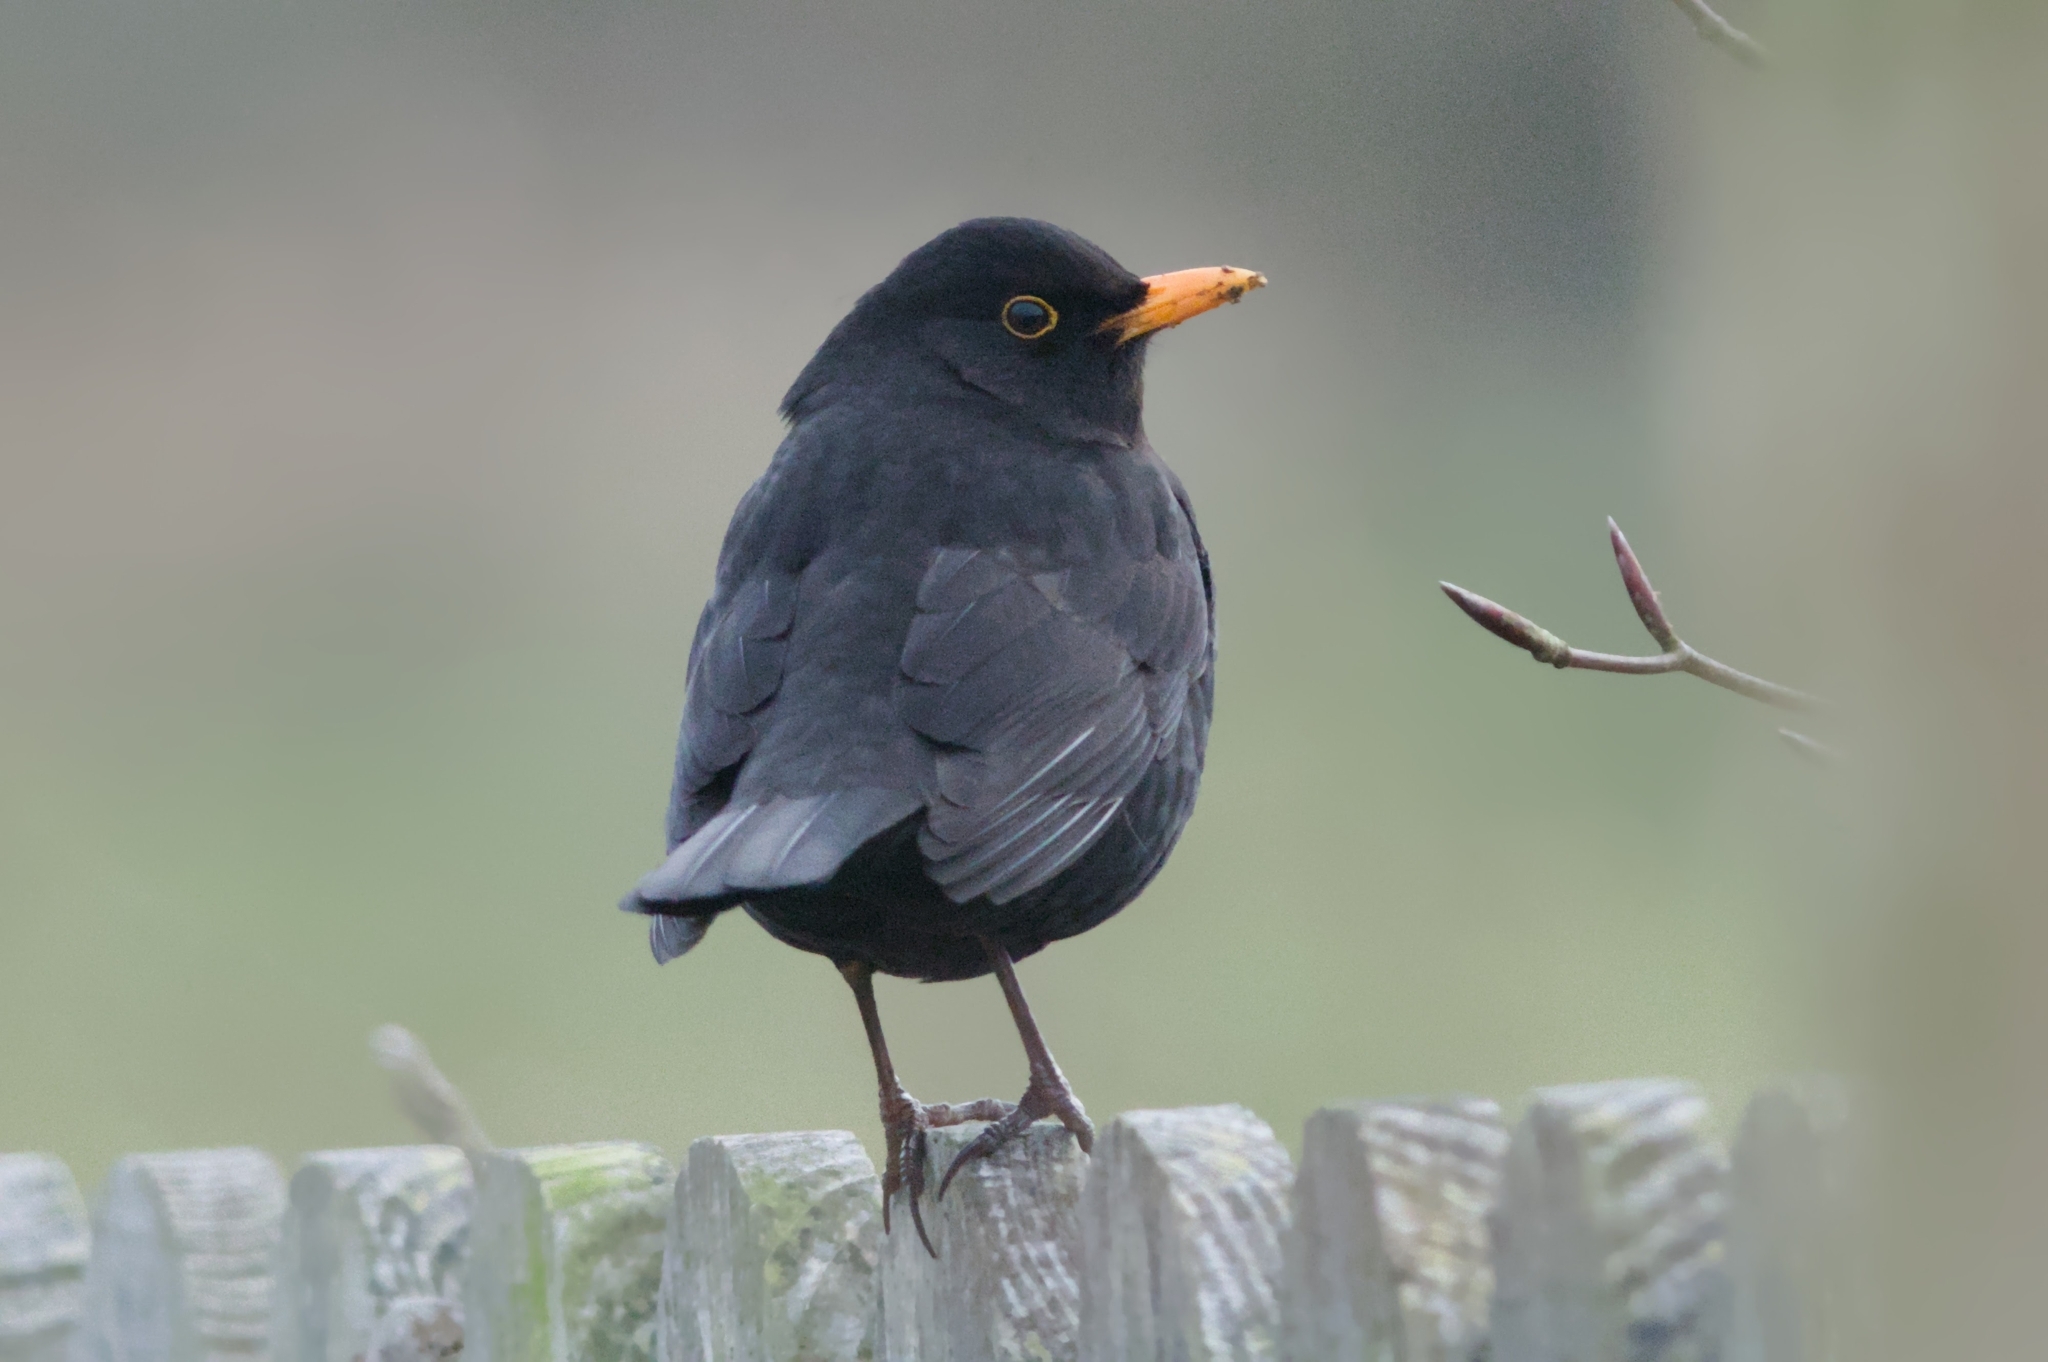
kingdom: Animalia
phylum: Chordata
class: Aves
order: Passeriformes
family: Turdidae
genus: Turdus
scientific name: Turdus merula
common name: Common blackbird
